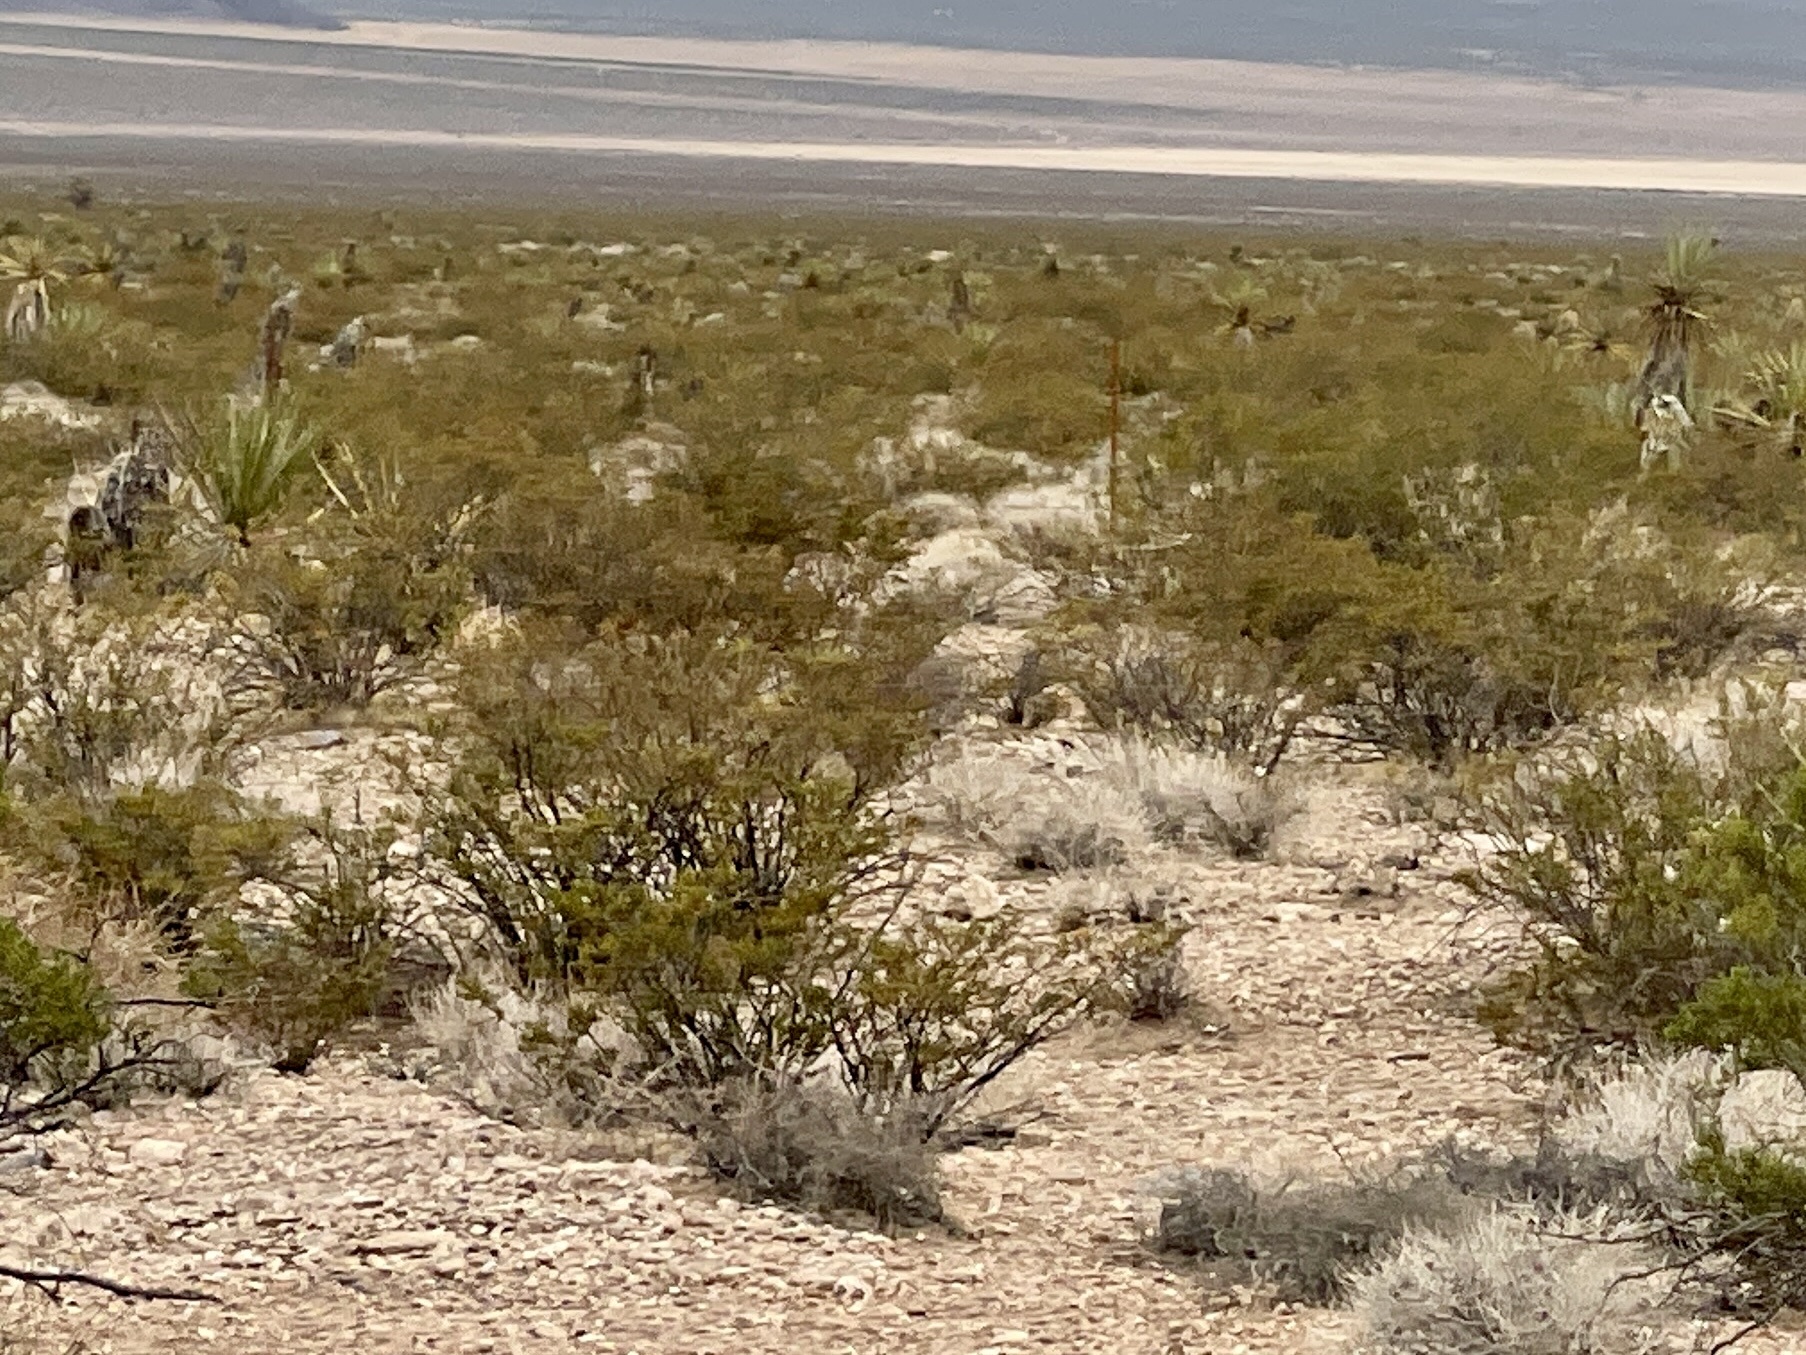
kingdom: Plantae
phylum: Tracheophyta
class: Magnoliopsida
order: Zygophyllales
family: Zygophyllaceae
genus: Larrea
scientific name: Larrea tridentata
